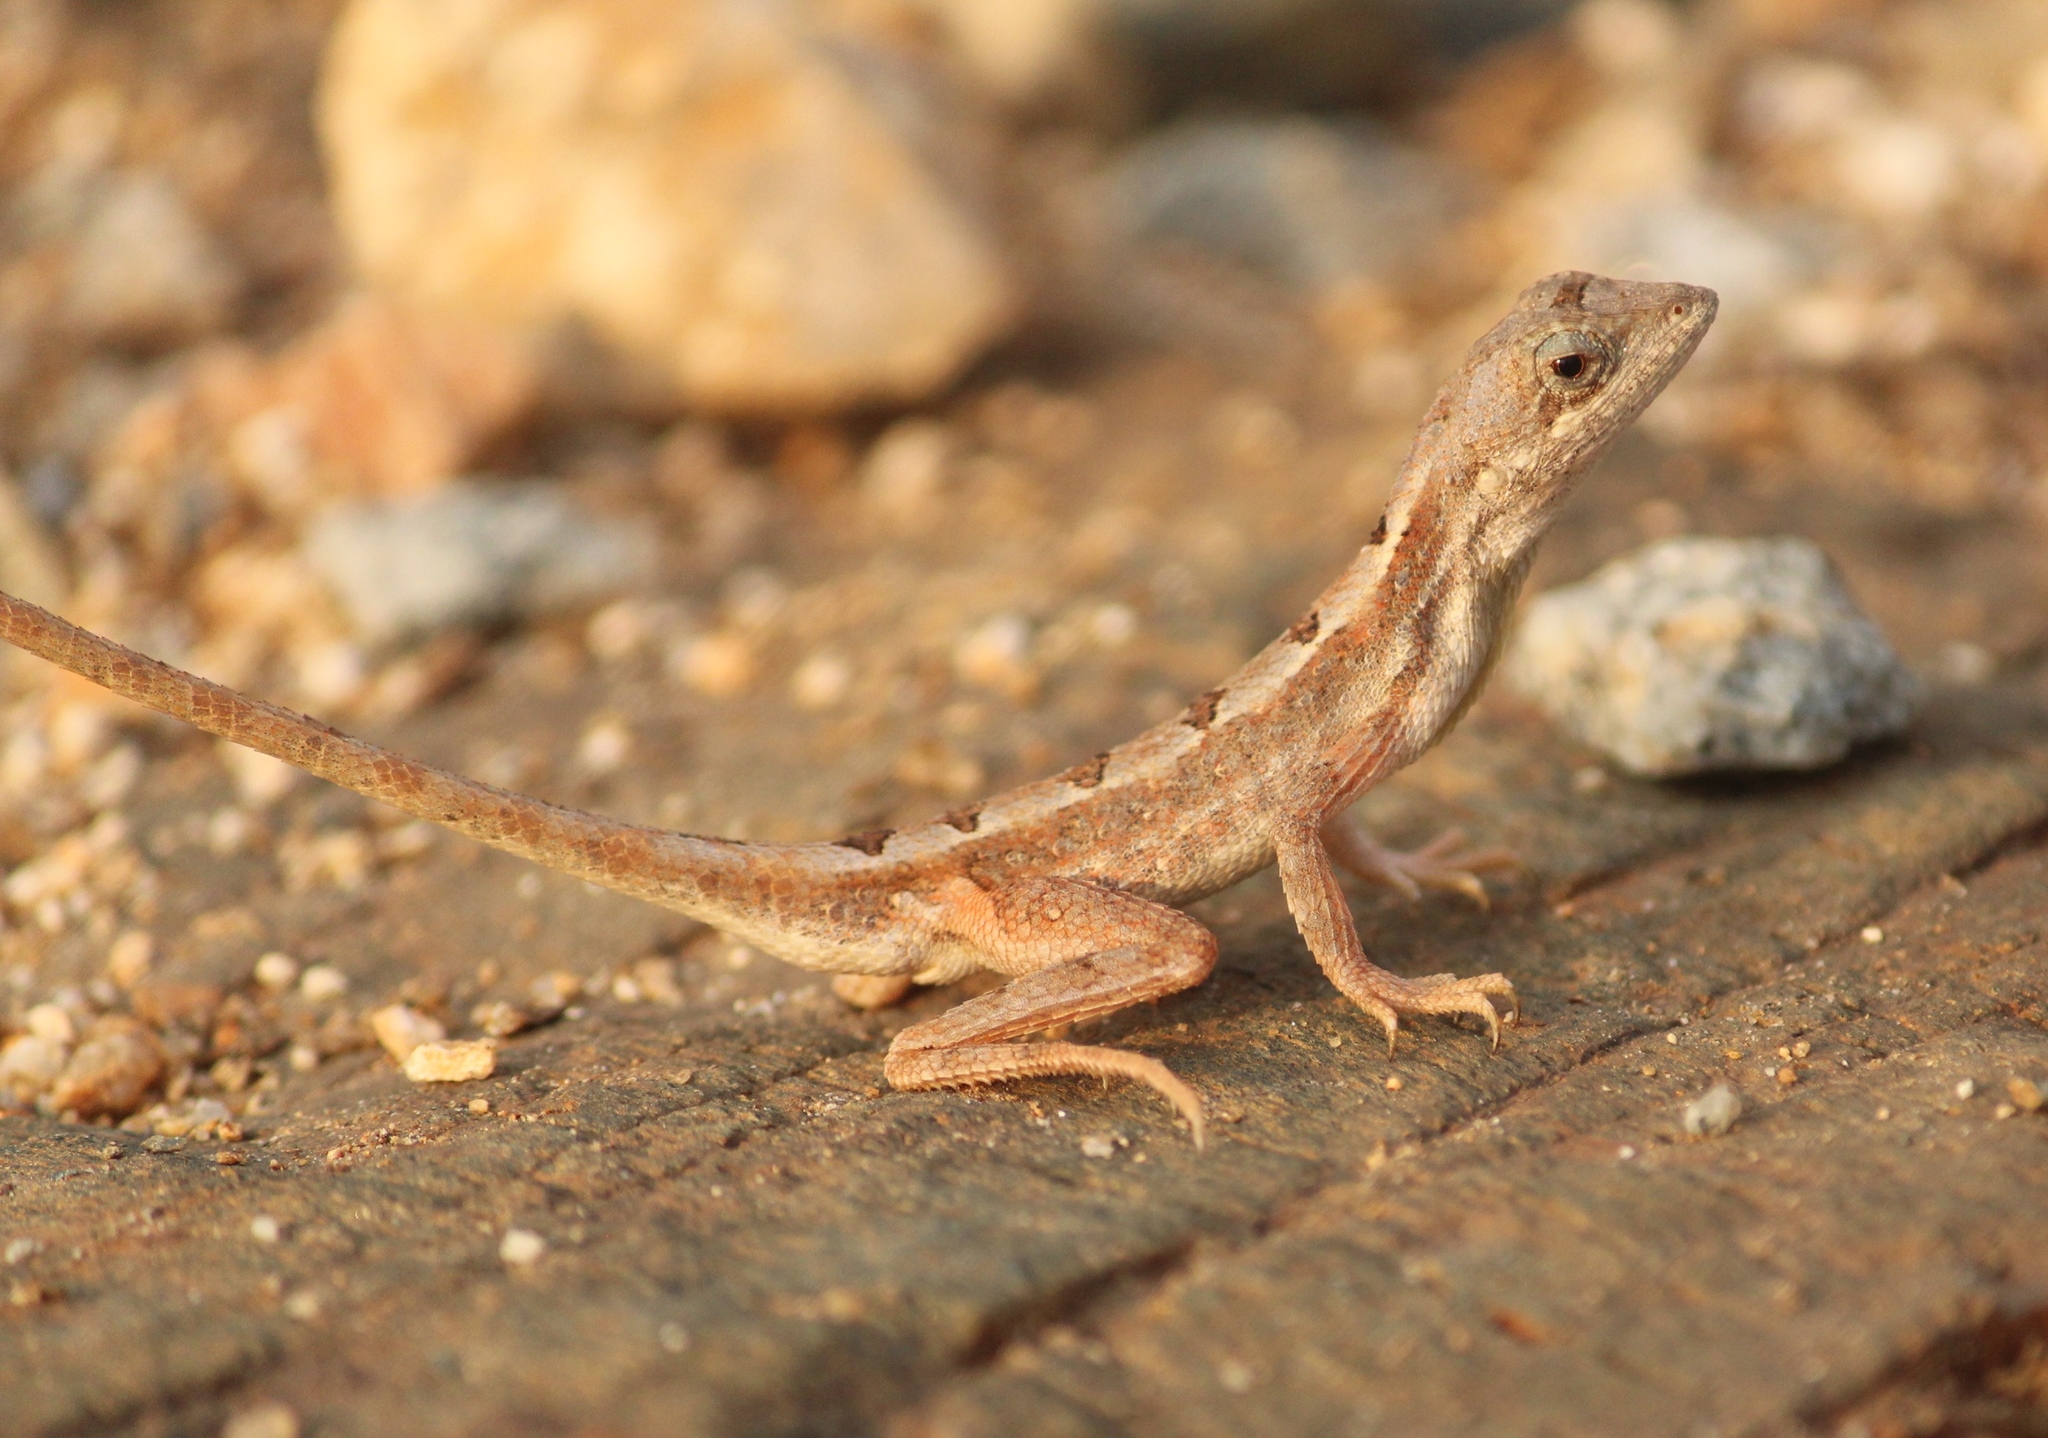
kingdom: Animalia
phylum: Chordata
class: Squamata
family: Agamidae
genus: Sitana
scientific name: Sitana ponticeriana
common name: Pondichéry fan throated lizard
